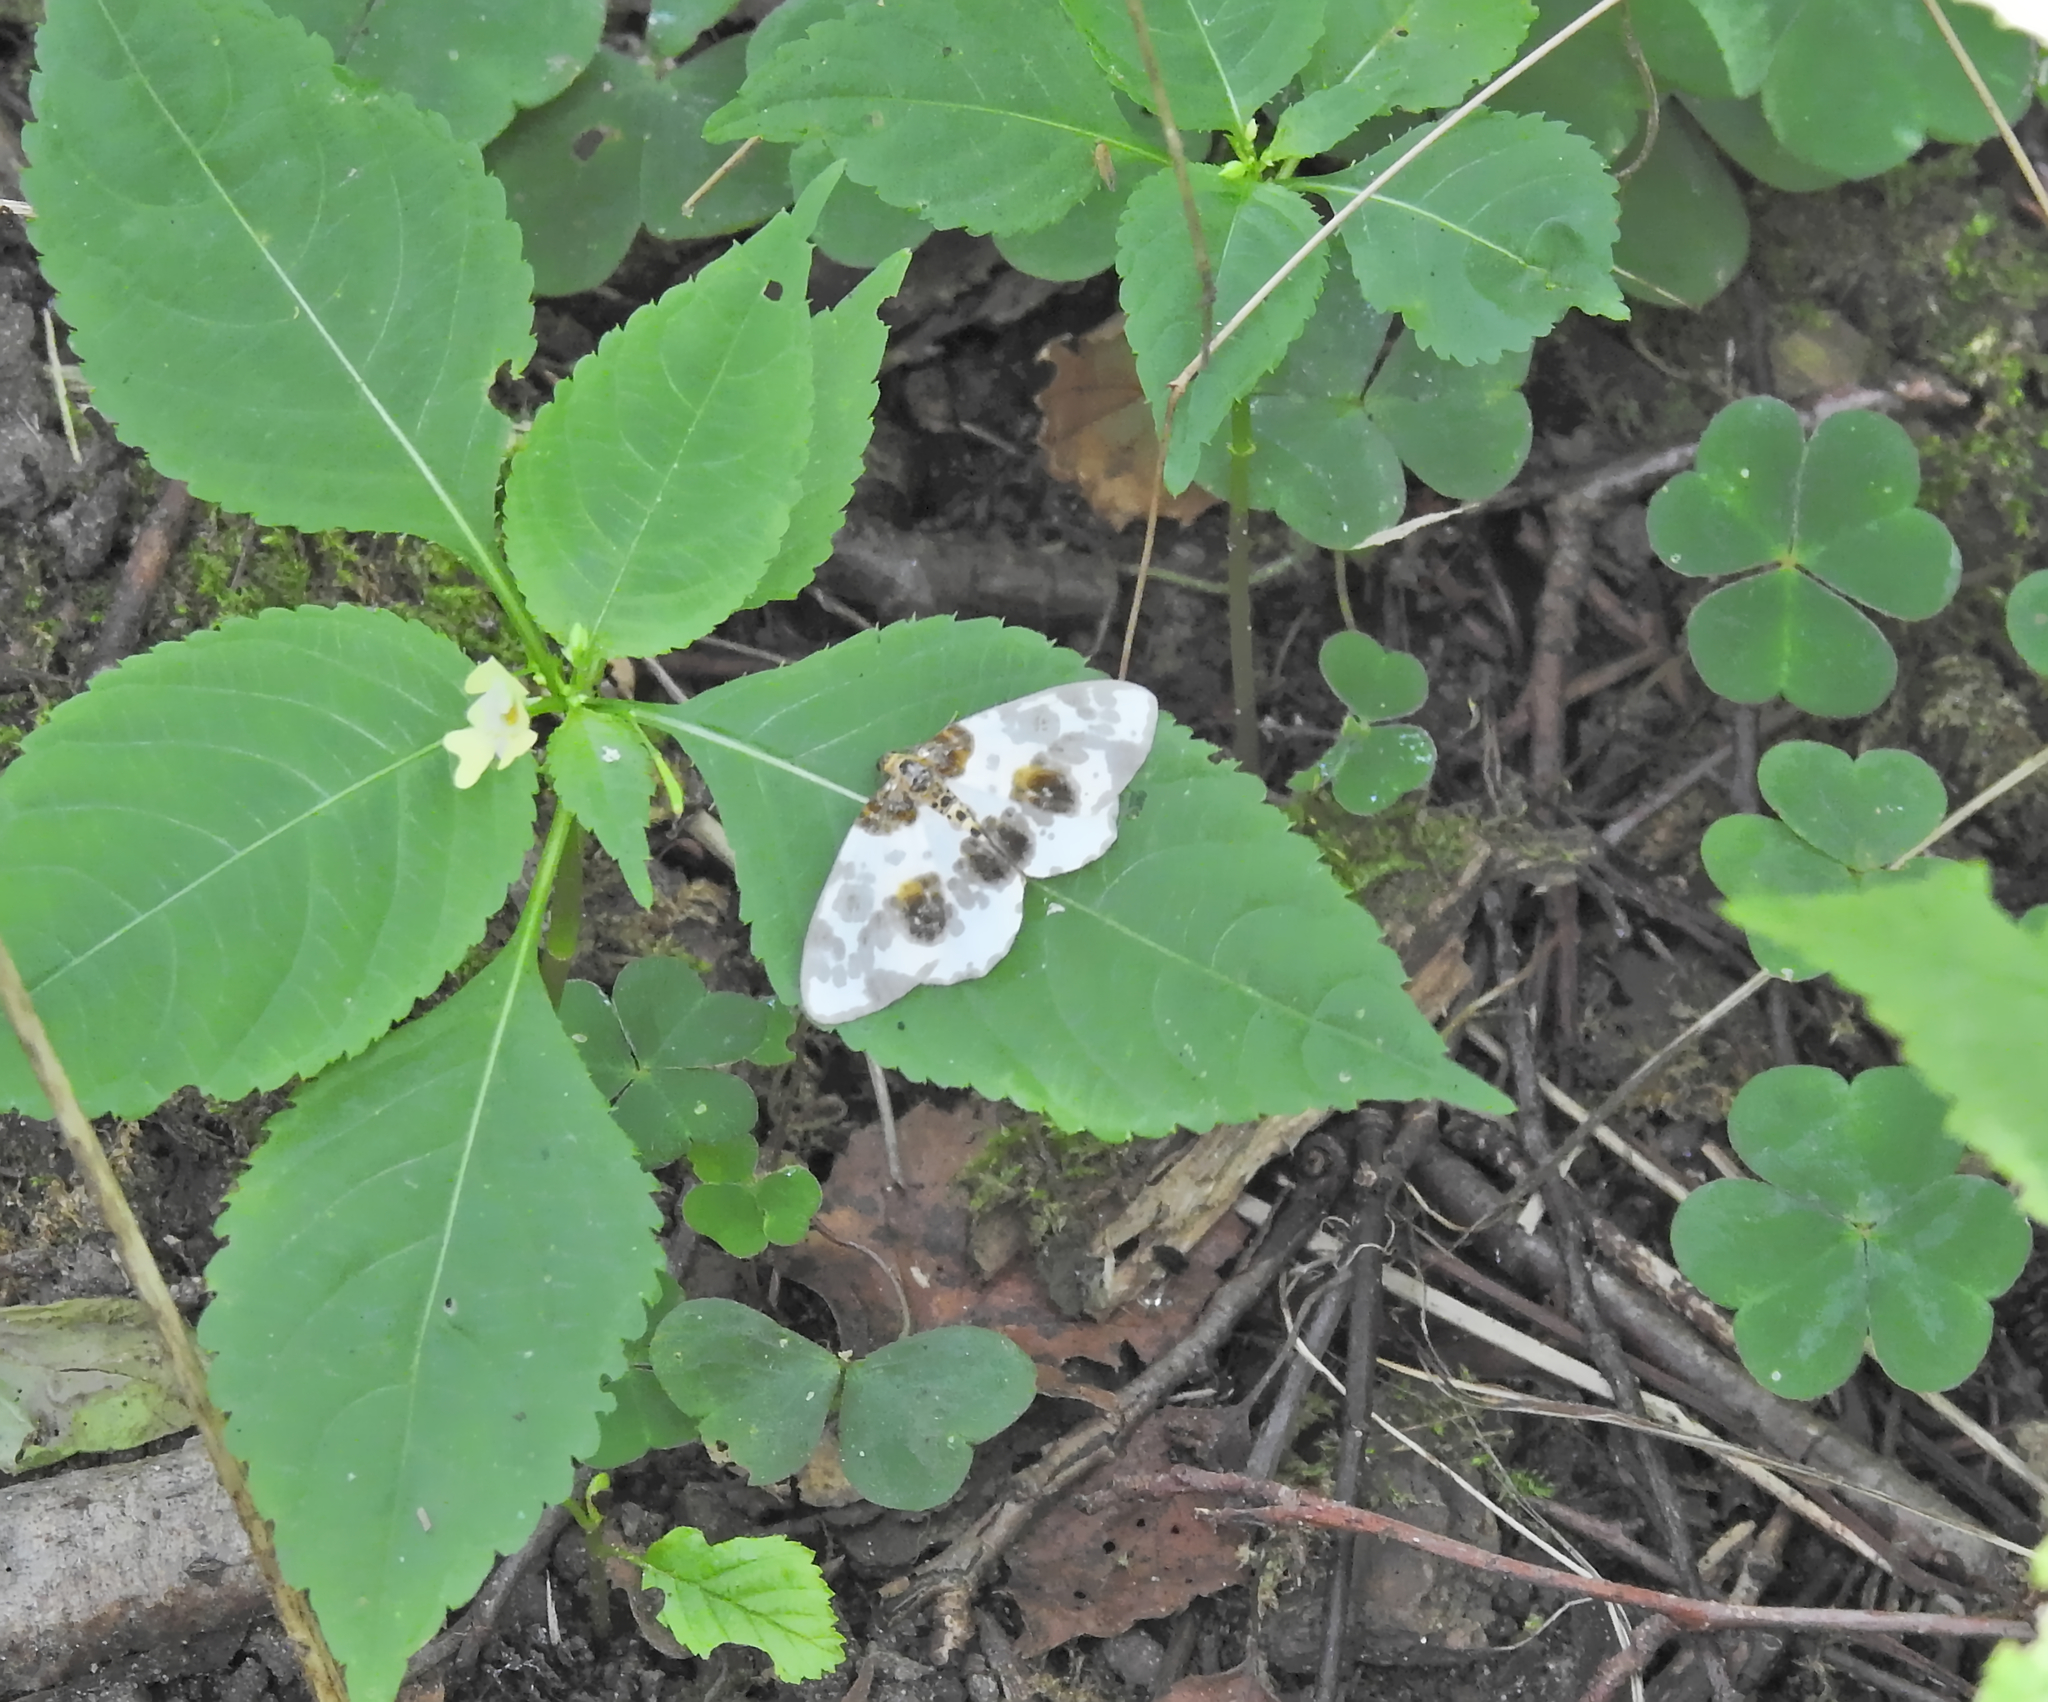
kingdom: Animalia
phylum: Arthropoda
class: Insecta
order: Lepidoptera
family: Geometridae
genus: Abraxas
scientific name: Abraxas sylvata
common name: Clouded magpie
